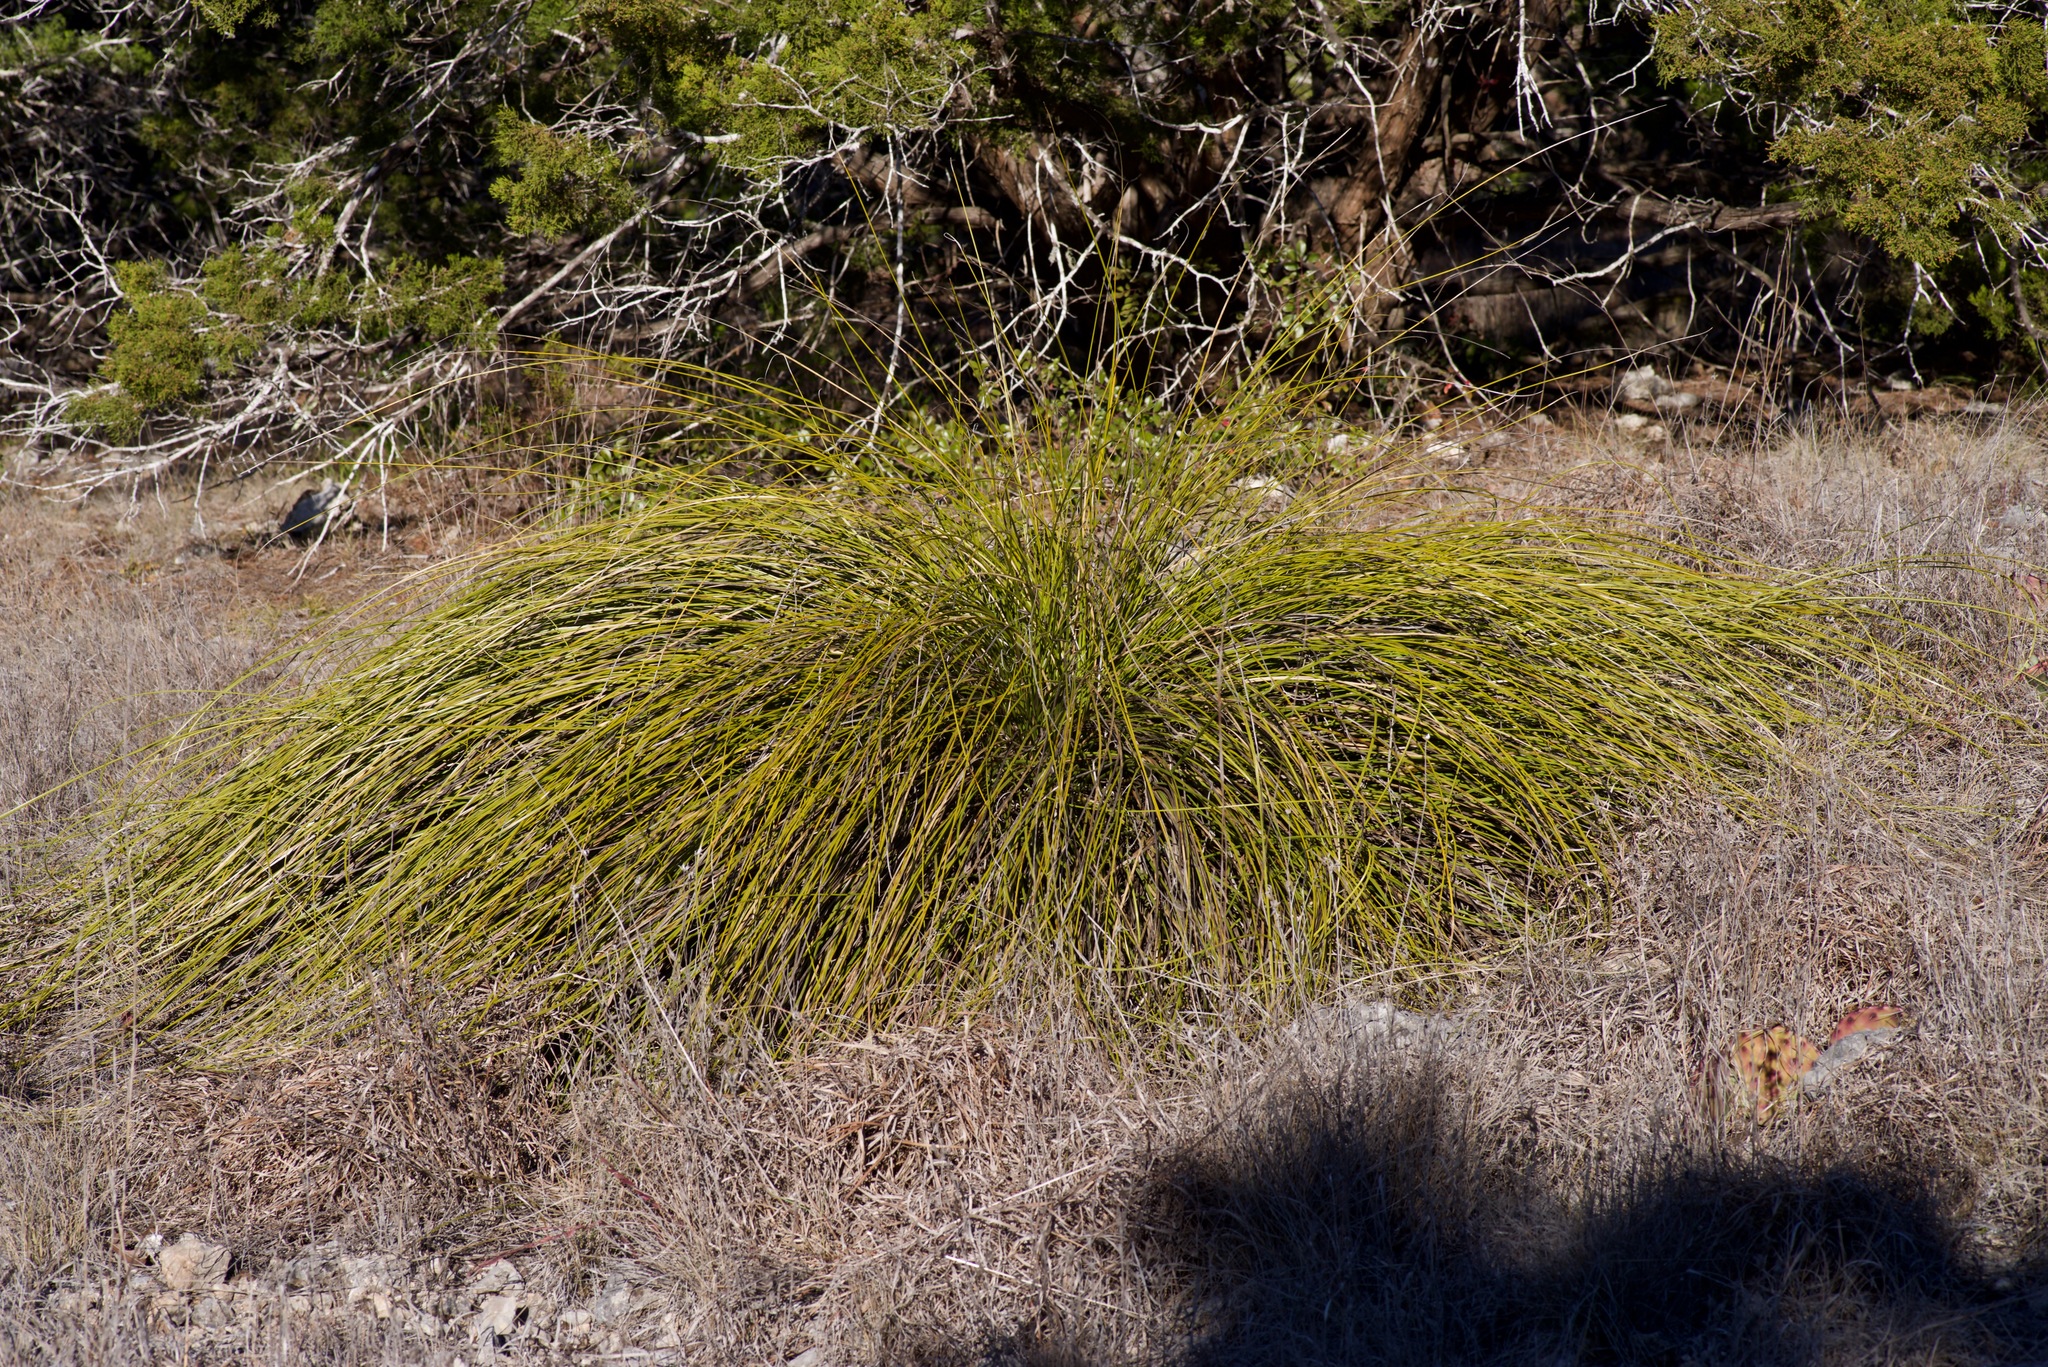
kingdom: Plantae
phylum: Tracheophyta
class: Liliopsida
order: Asparagales
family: Asparagaceae
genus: Nolina
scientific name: Nolina texana
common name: Texas sacahuiste
